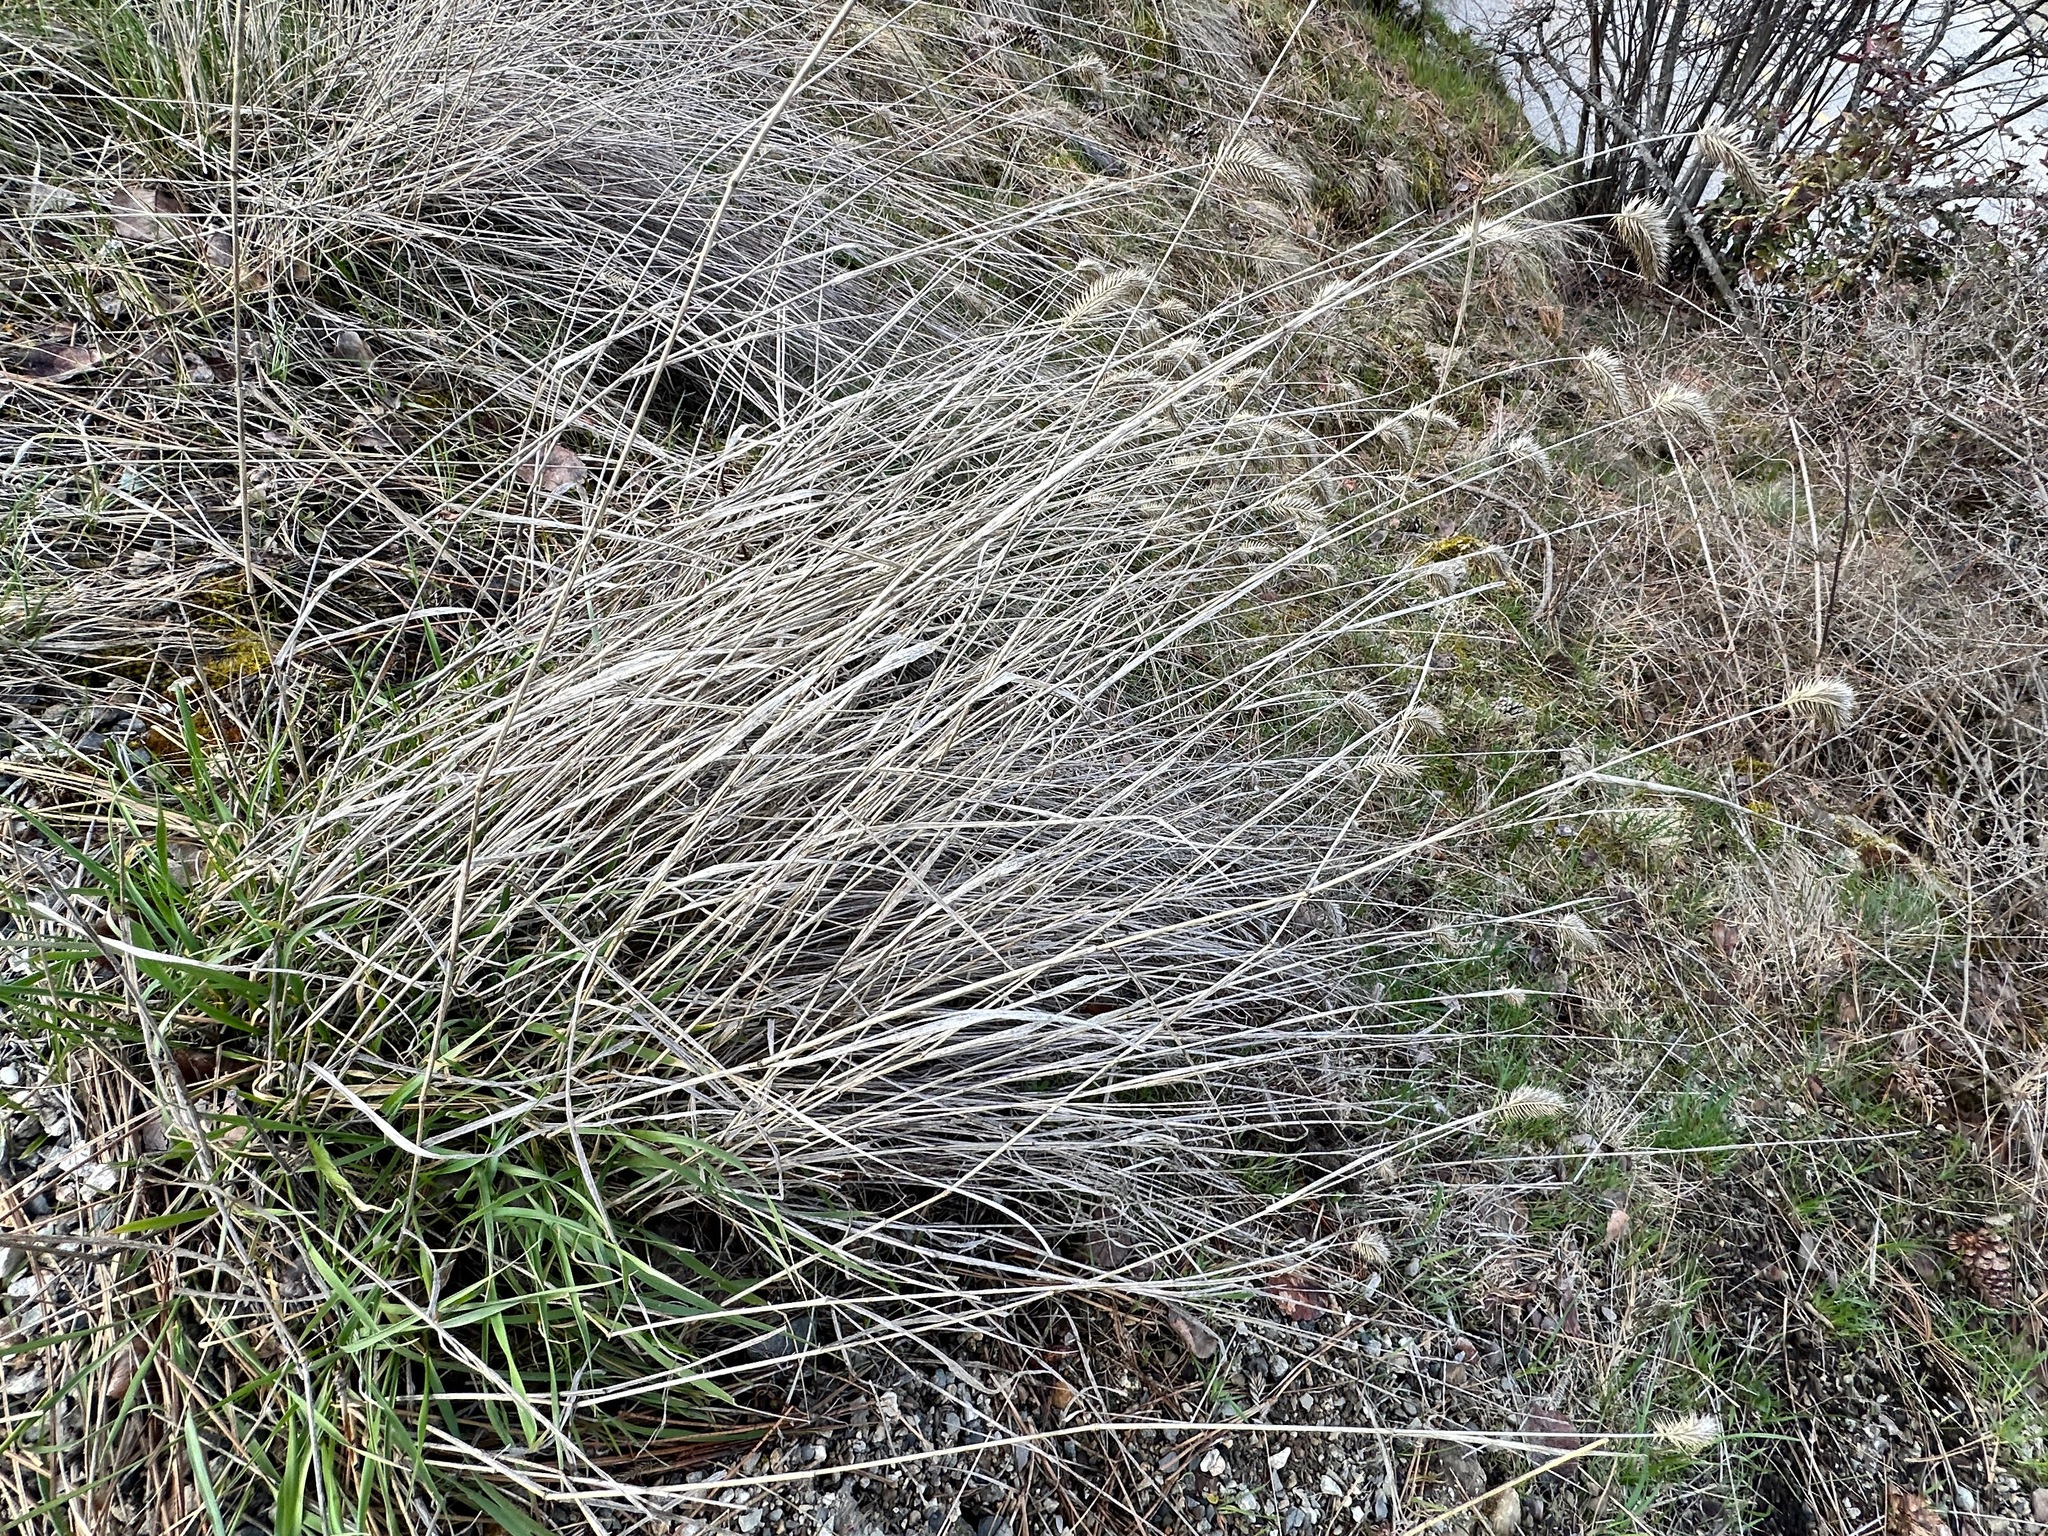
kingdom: Plantae
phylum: Tracheophyta
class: Liliopsida
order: Poales
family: Poaceae
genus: Agropyron
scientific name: Agropyron cristatum
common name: Crested wheatgrass
